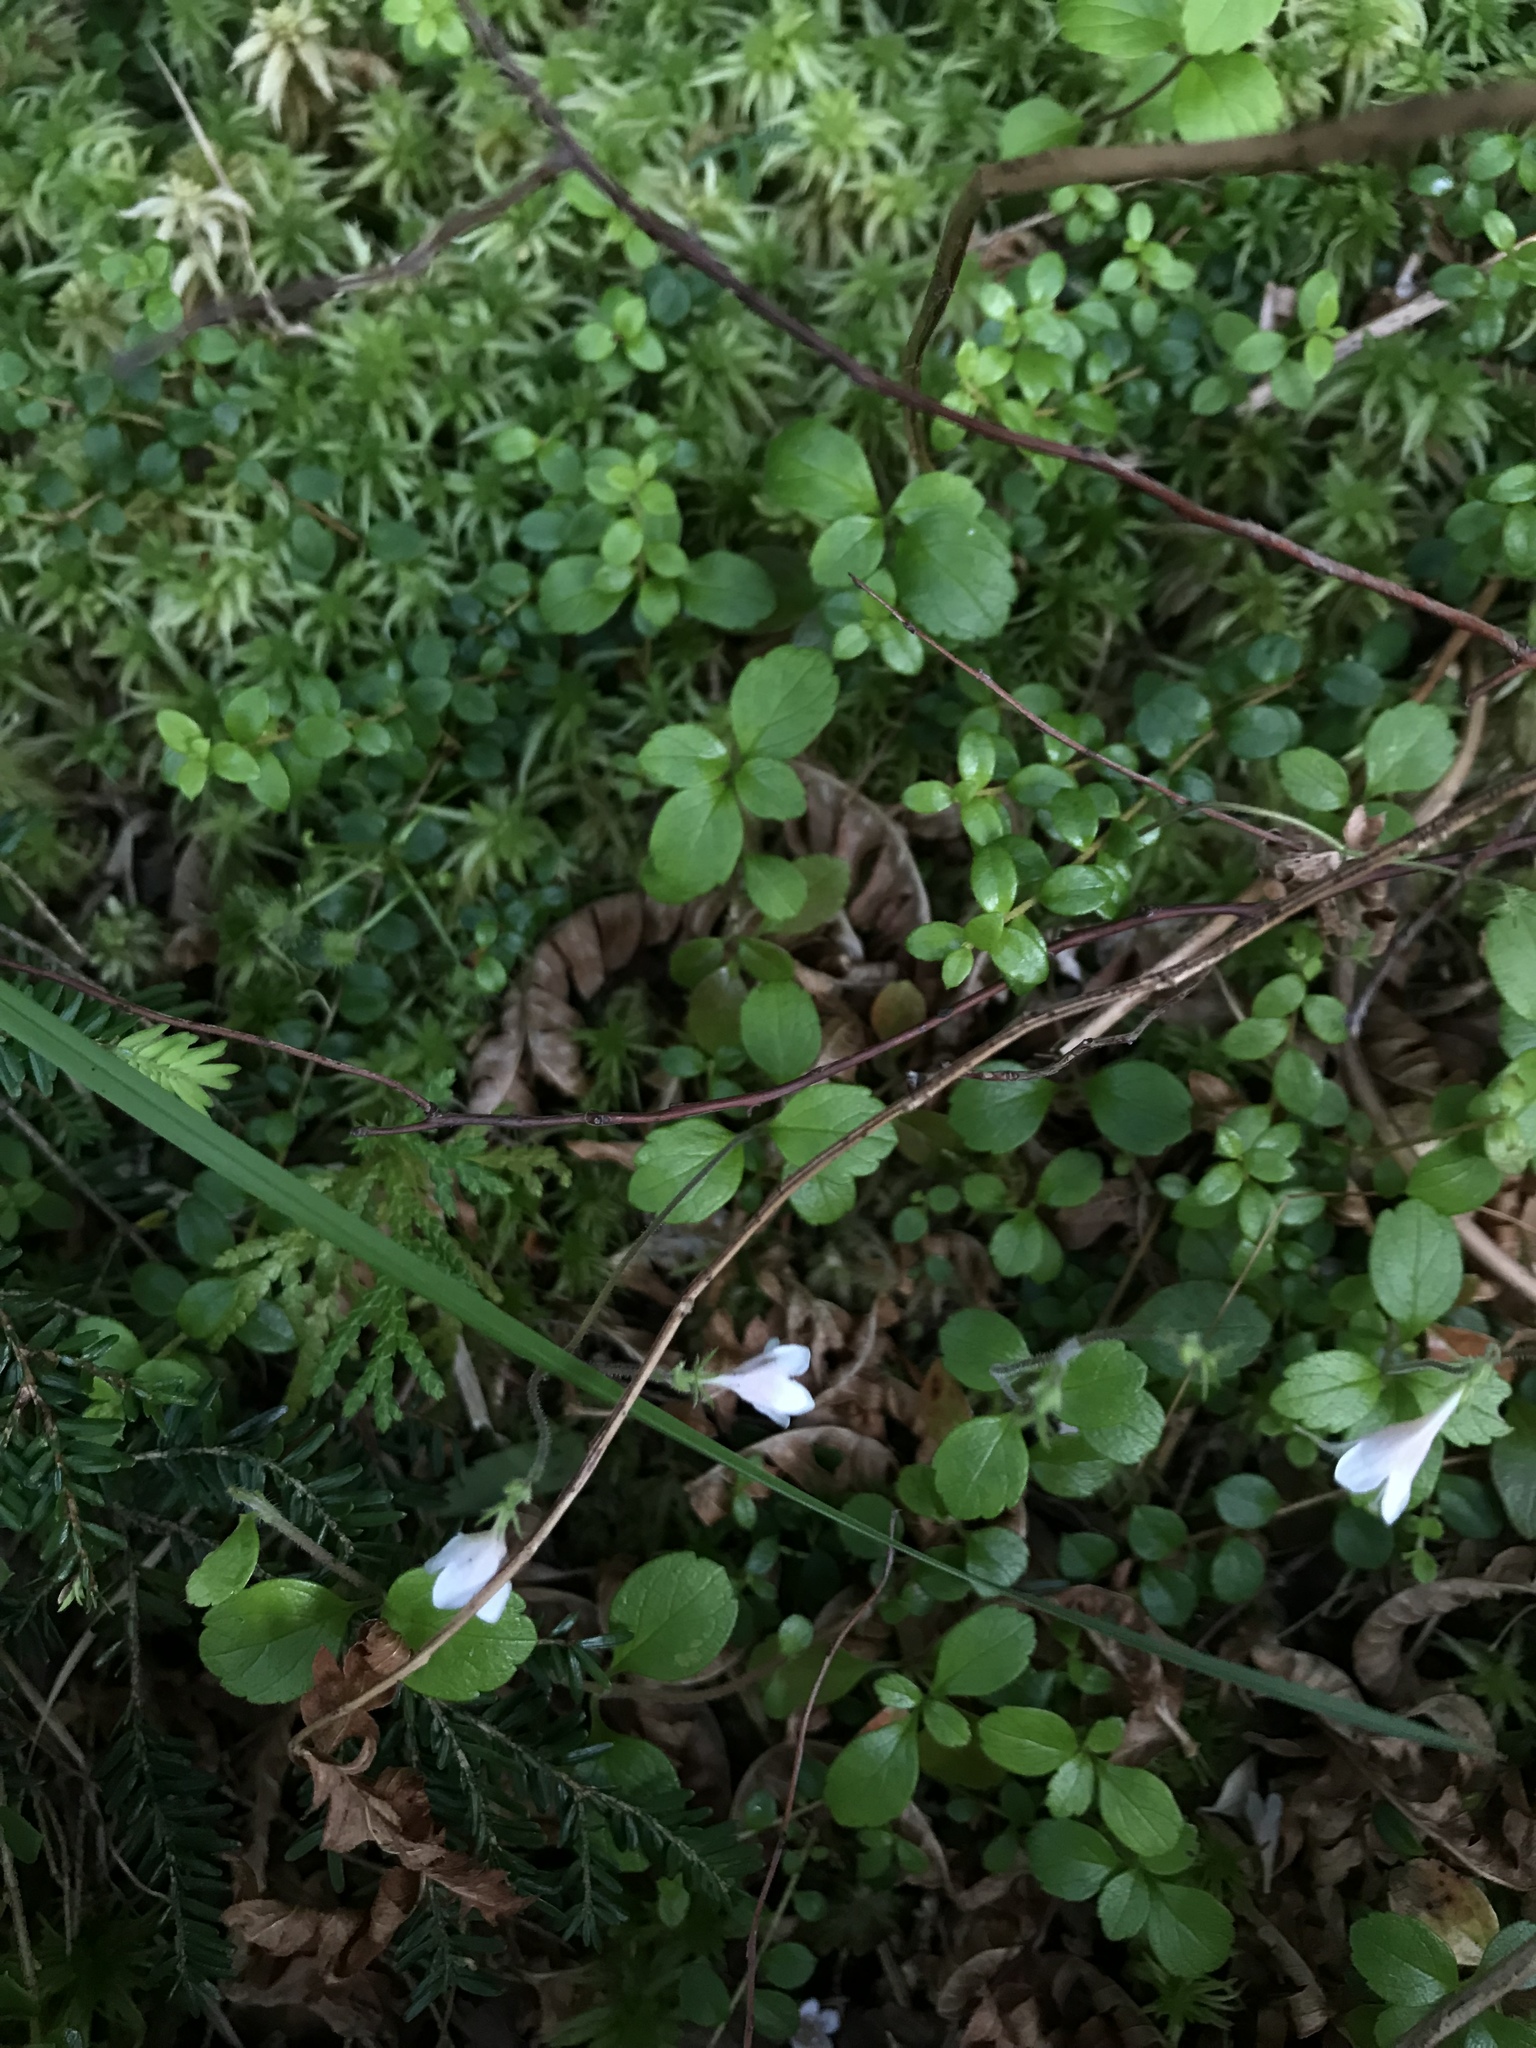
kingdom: Plantae
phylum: Tracheophyta
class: Magnoliopsida
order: Dipsacales
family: Caprifoliaceae
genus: Linnaea
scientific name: Linnaea borealis
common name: Twinflower
